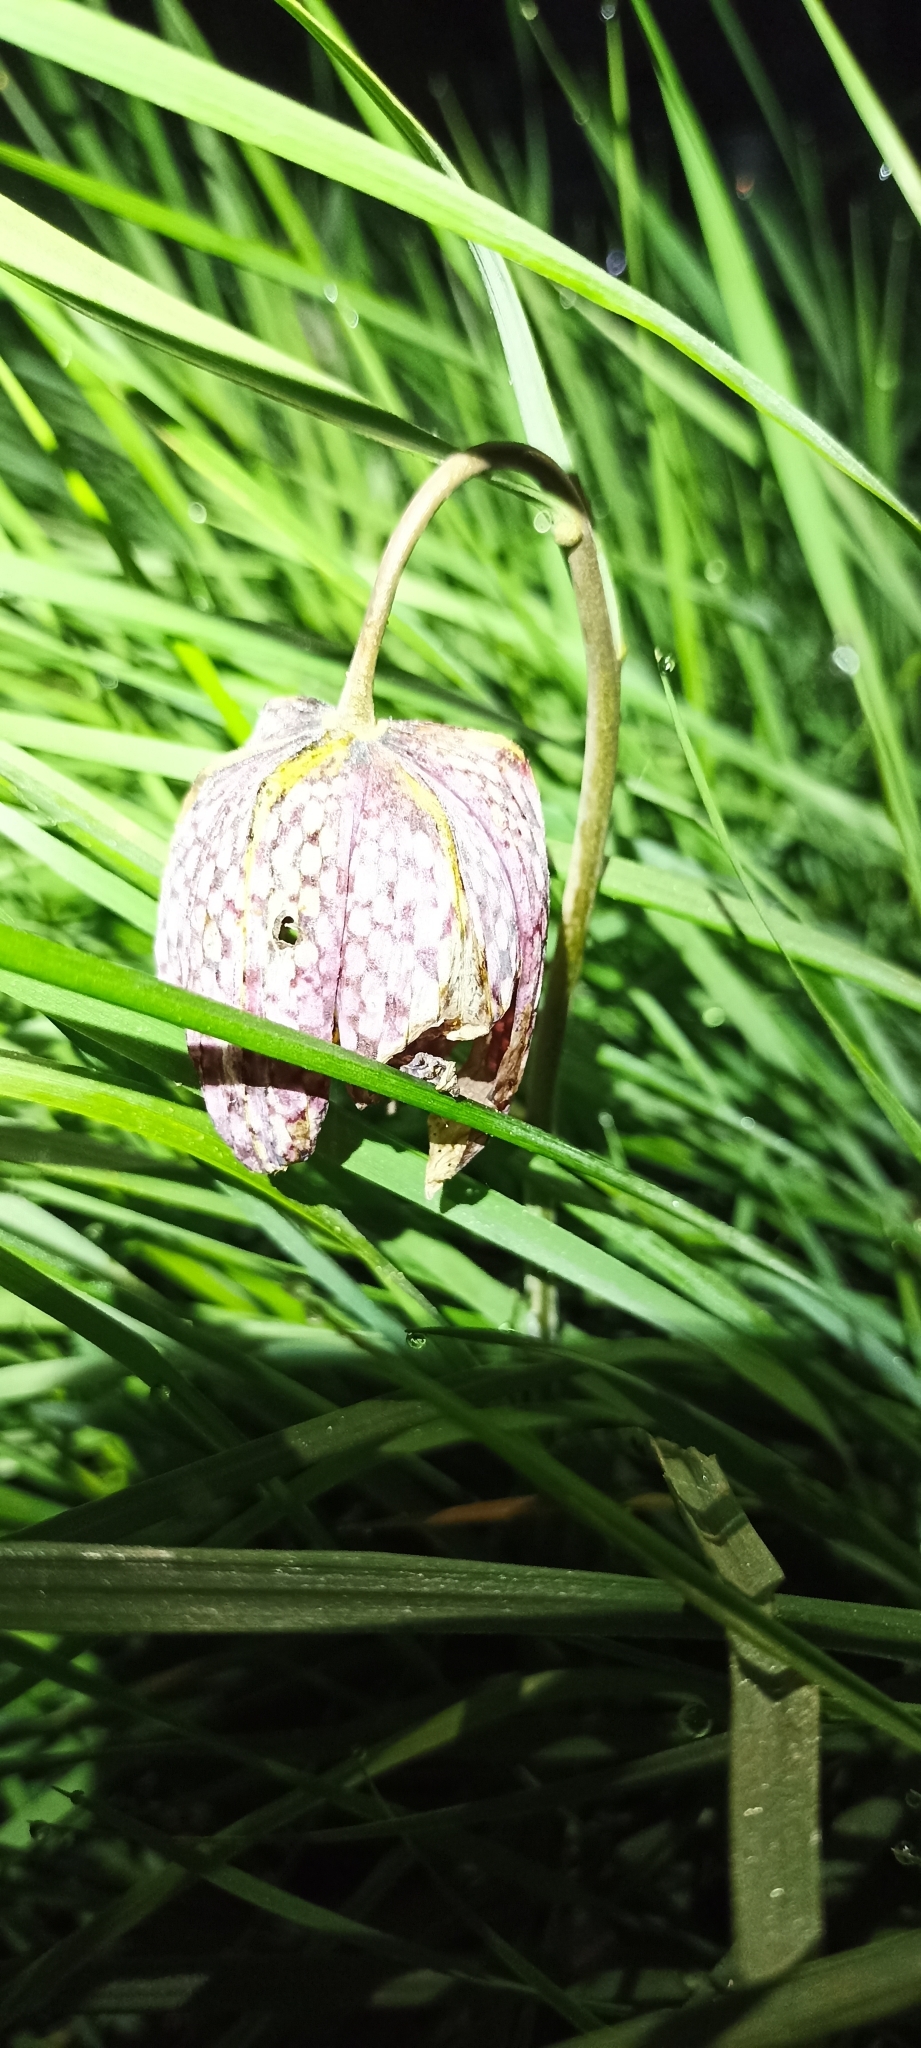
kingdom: Plantae
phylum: Tracheophyta
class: Liliopsida
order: Liliales
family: Liliaceae
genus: Fritillaria
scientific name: Fritillaria meleagris
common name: Fritillary
